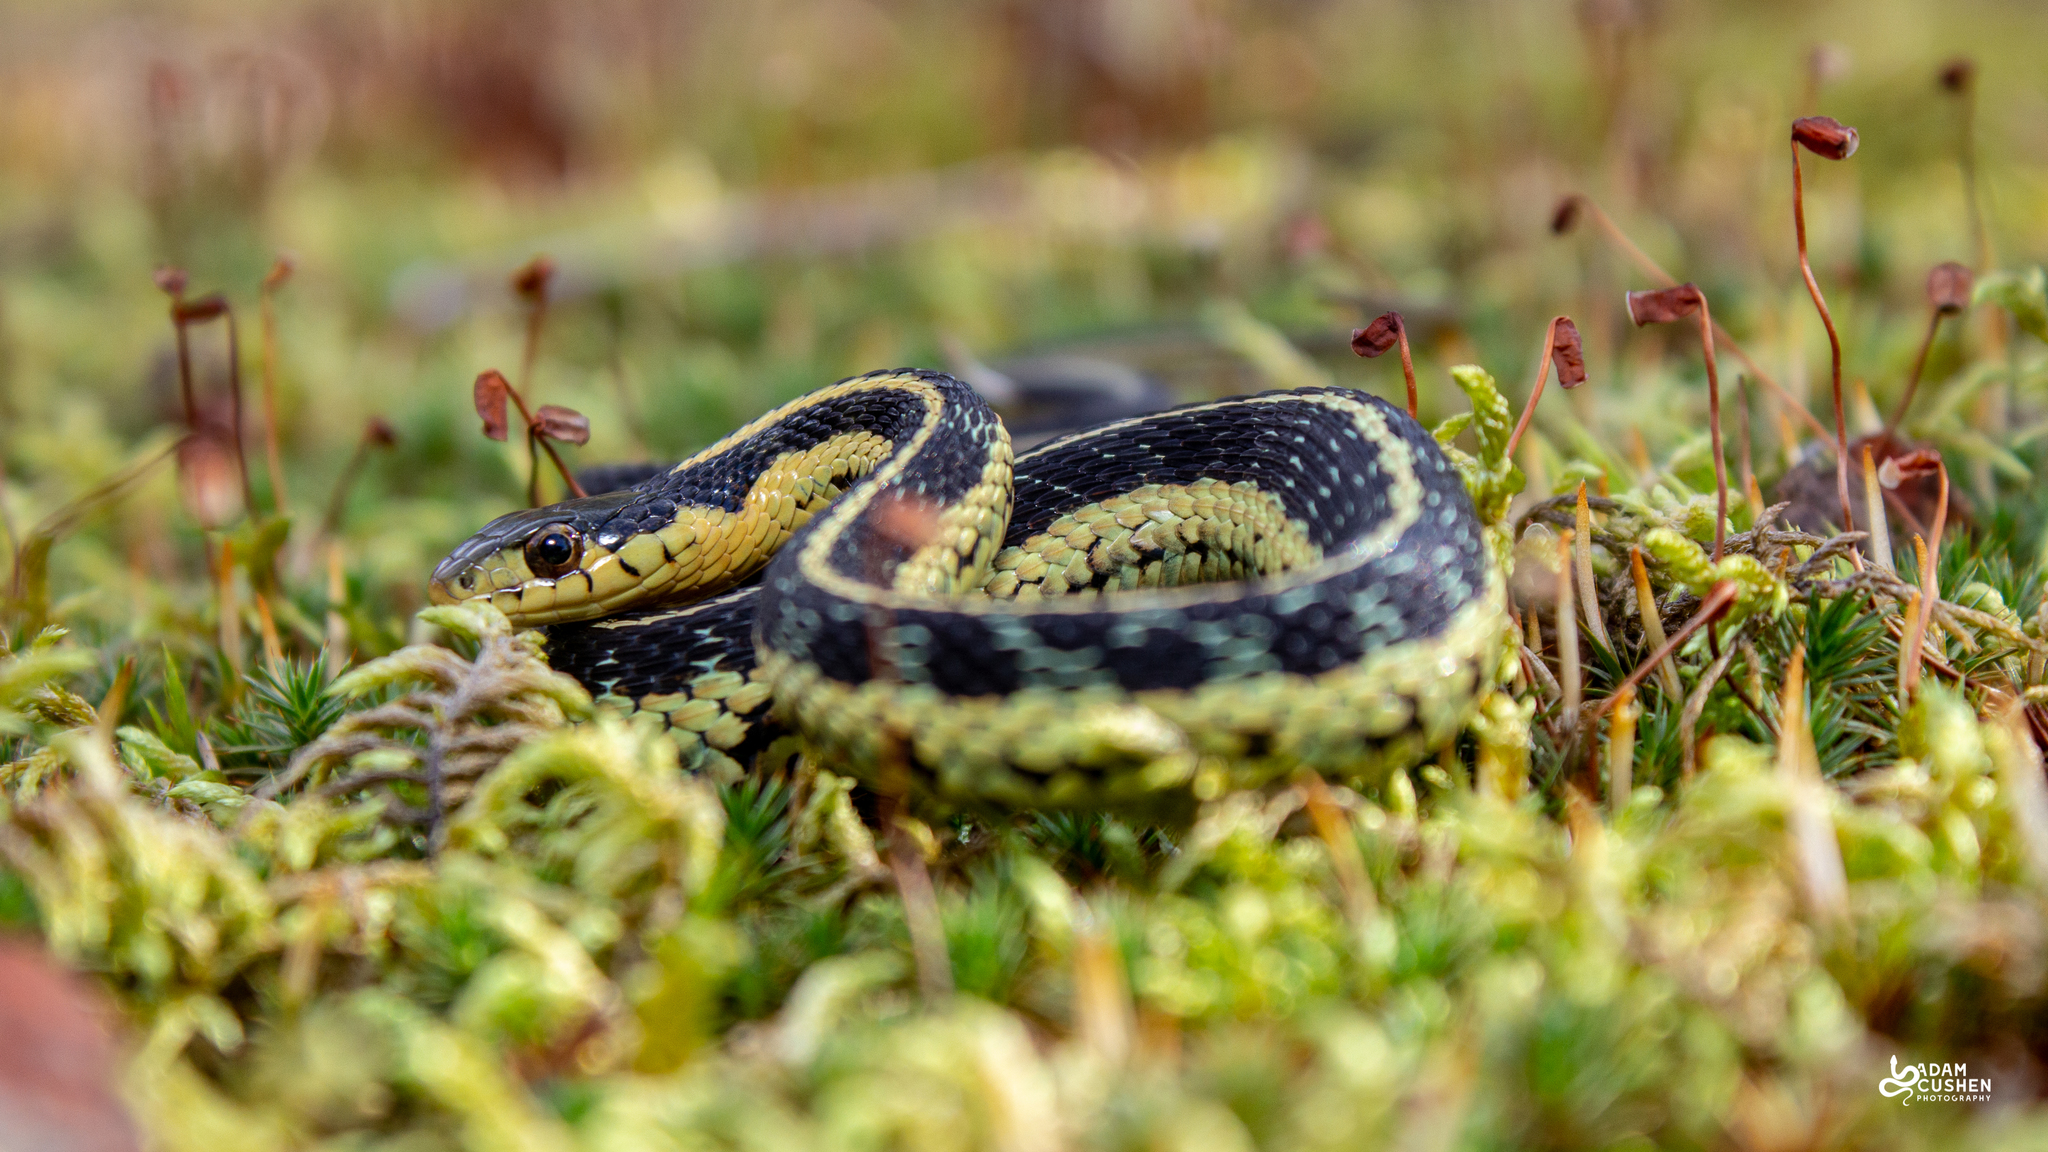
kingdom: Animalia
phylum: Chordata
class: Squamata
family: Colubridae
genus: Thamnophis
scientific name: Thamnophis sirtalis
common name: Common garter snake
